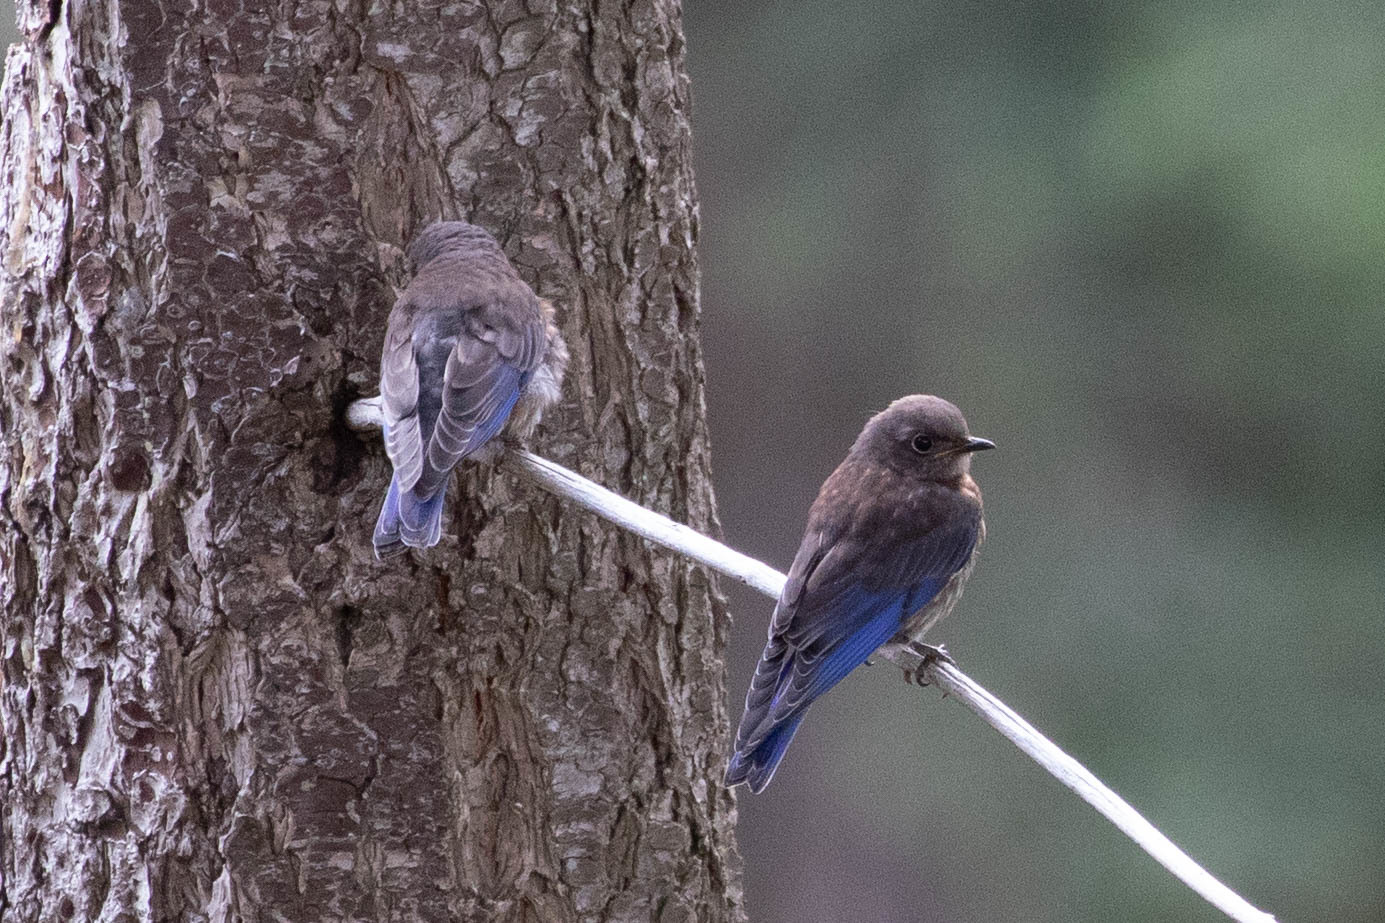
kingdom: Animalia
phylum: Chordata
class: Aves
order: Passeriformes
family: Turdidae
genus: Sialia
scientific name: Sialia mexicana
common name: Western bluebird
